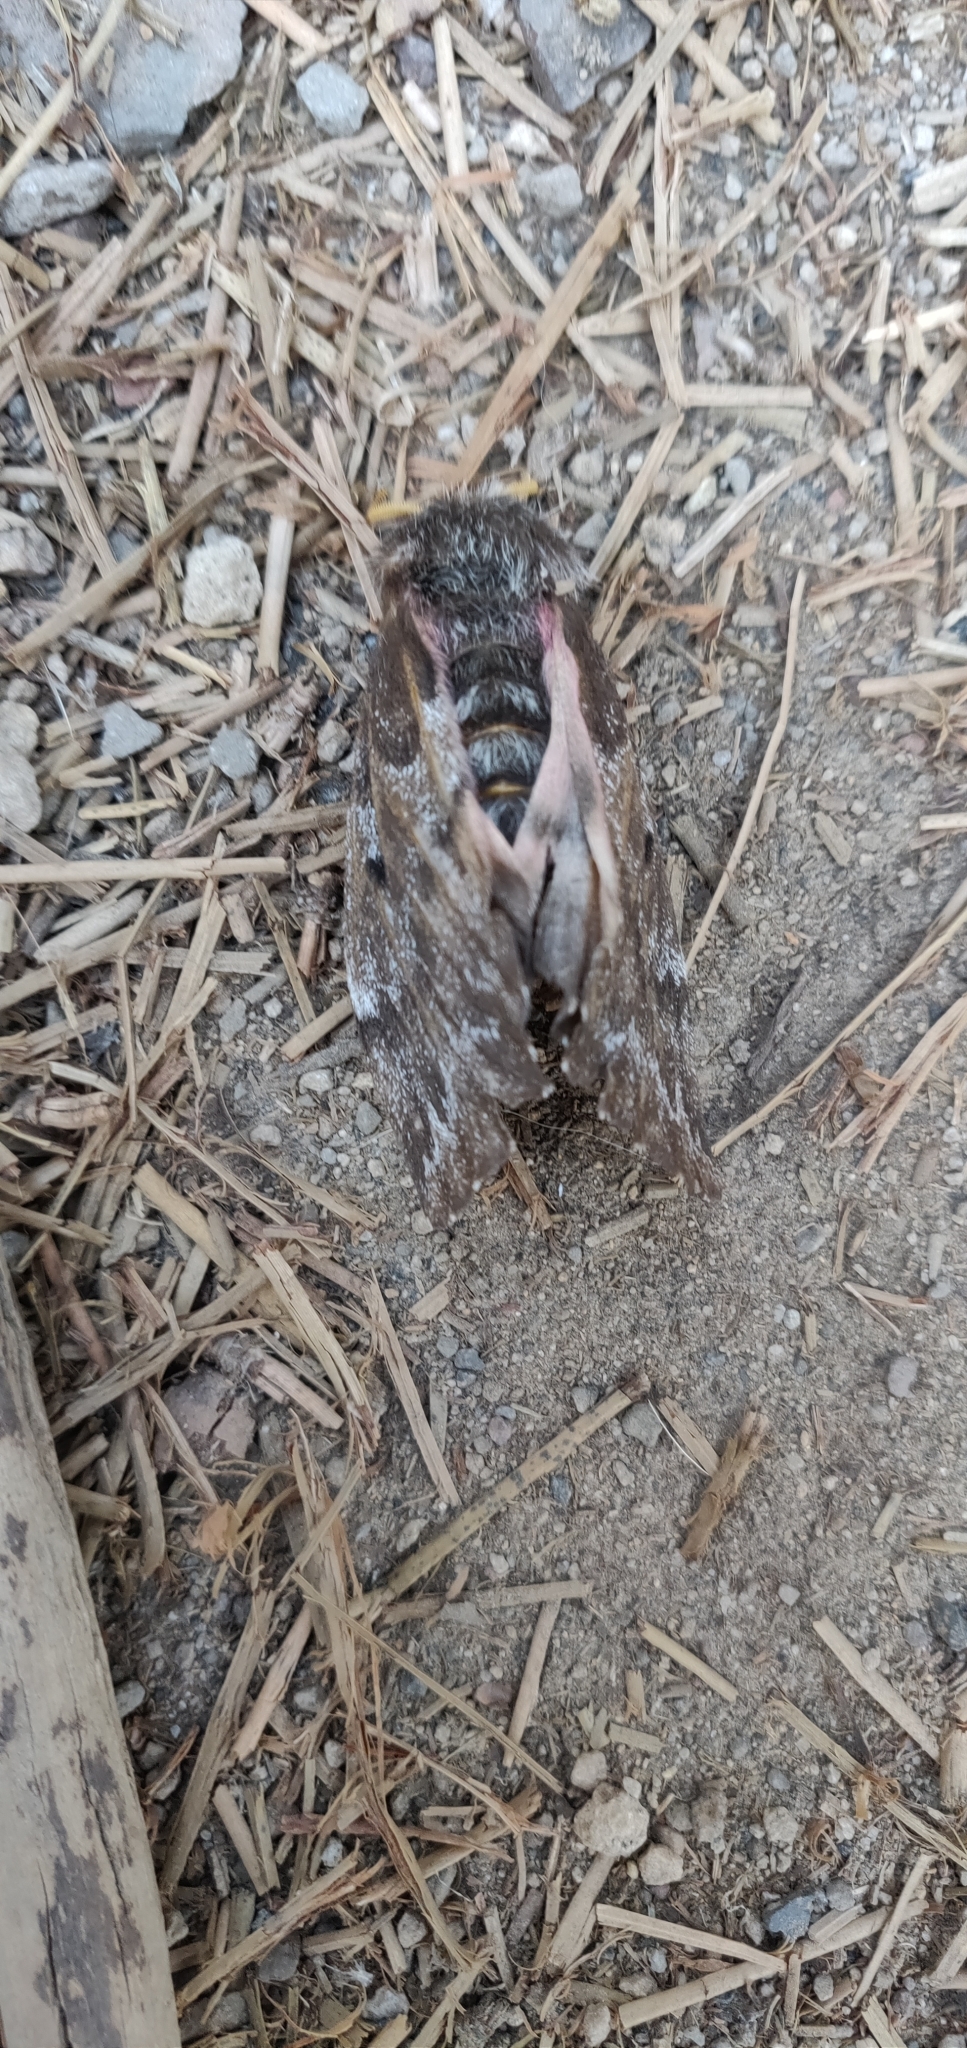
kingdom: Animalia
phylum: Arthropoda
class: Insecta
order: Lepidoptera
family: Saturniidae
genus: Coloradia
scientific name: Coloradia pandora
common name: Pandora pinemoth
